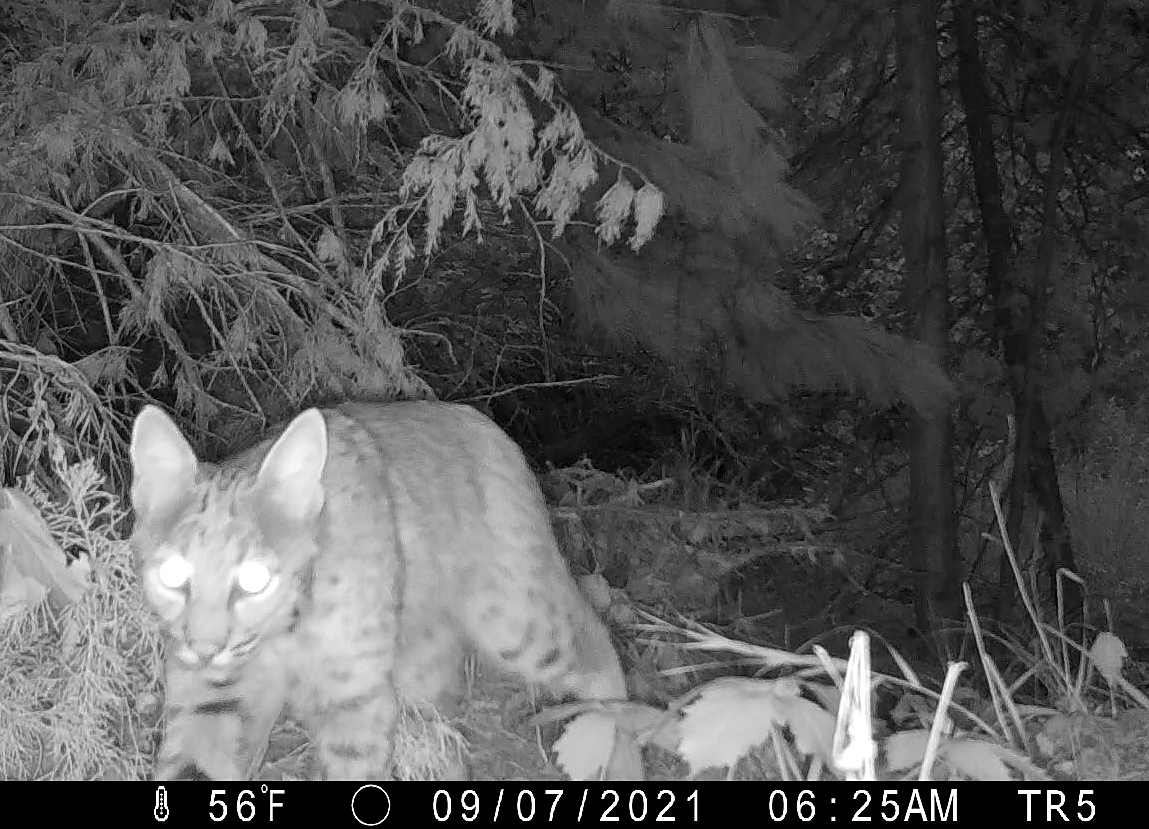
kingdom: Animalia
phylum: Chordata
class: Mammalia
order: Carnivora
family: Felidae
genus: Lynx
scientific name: Lynx rufus
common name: Bobcat
